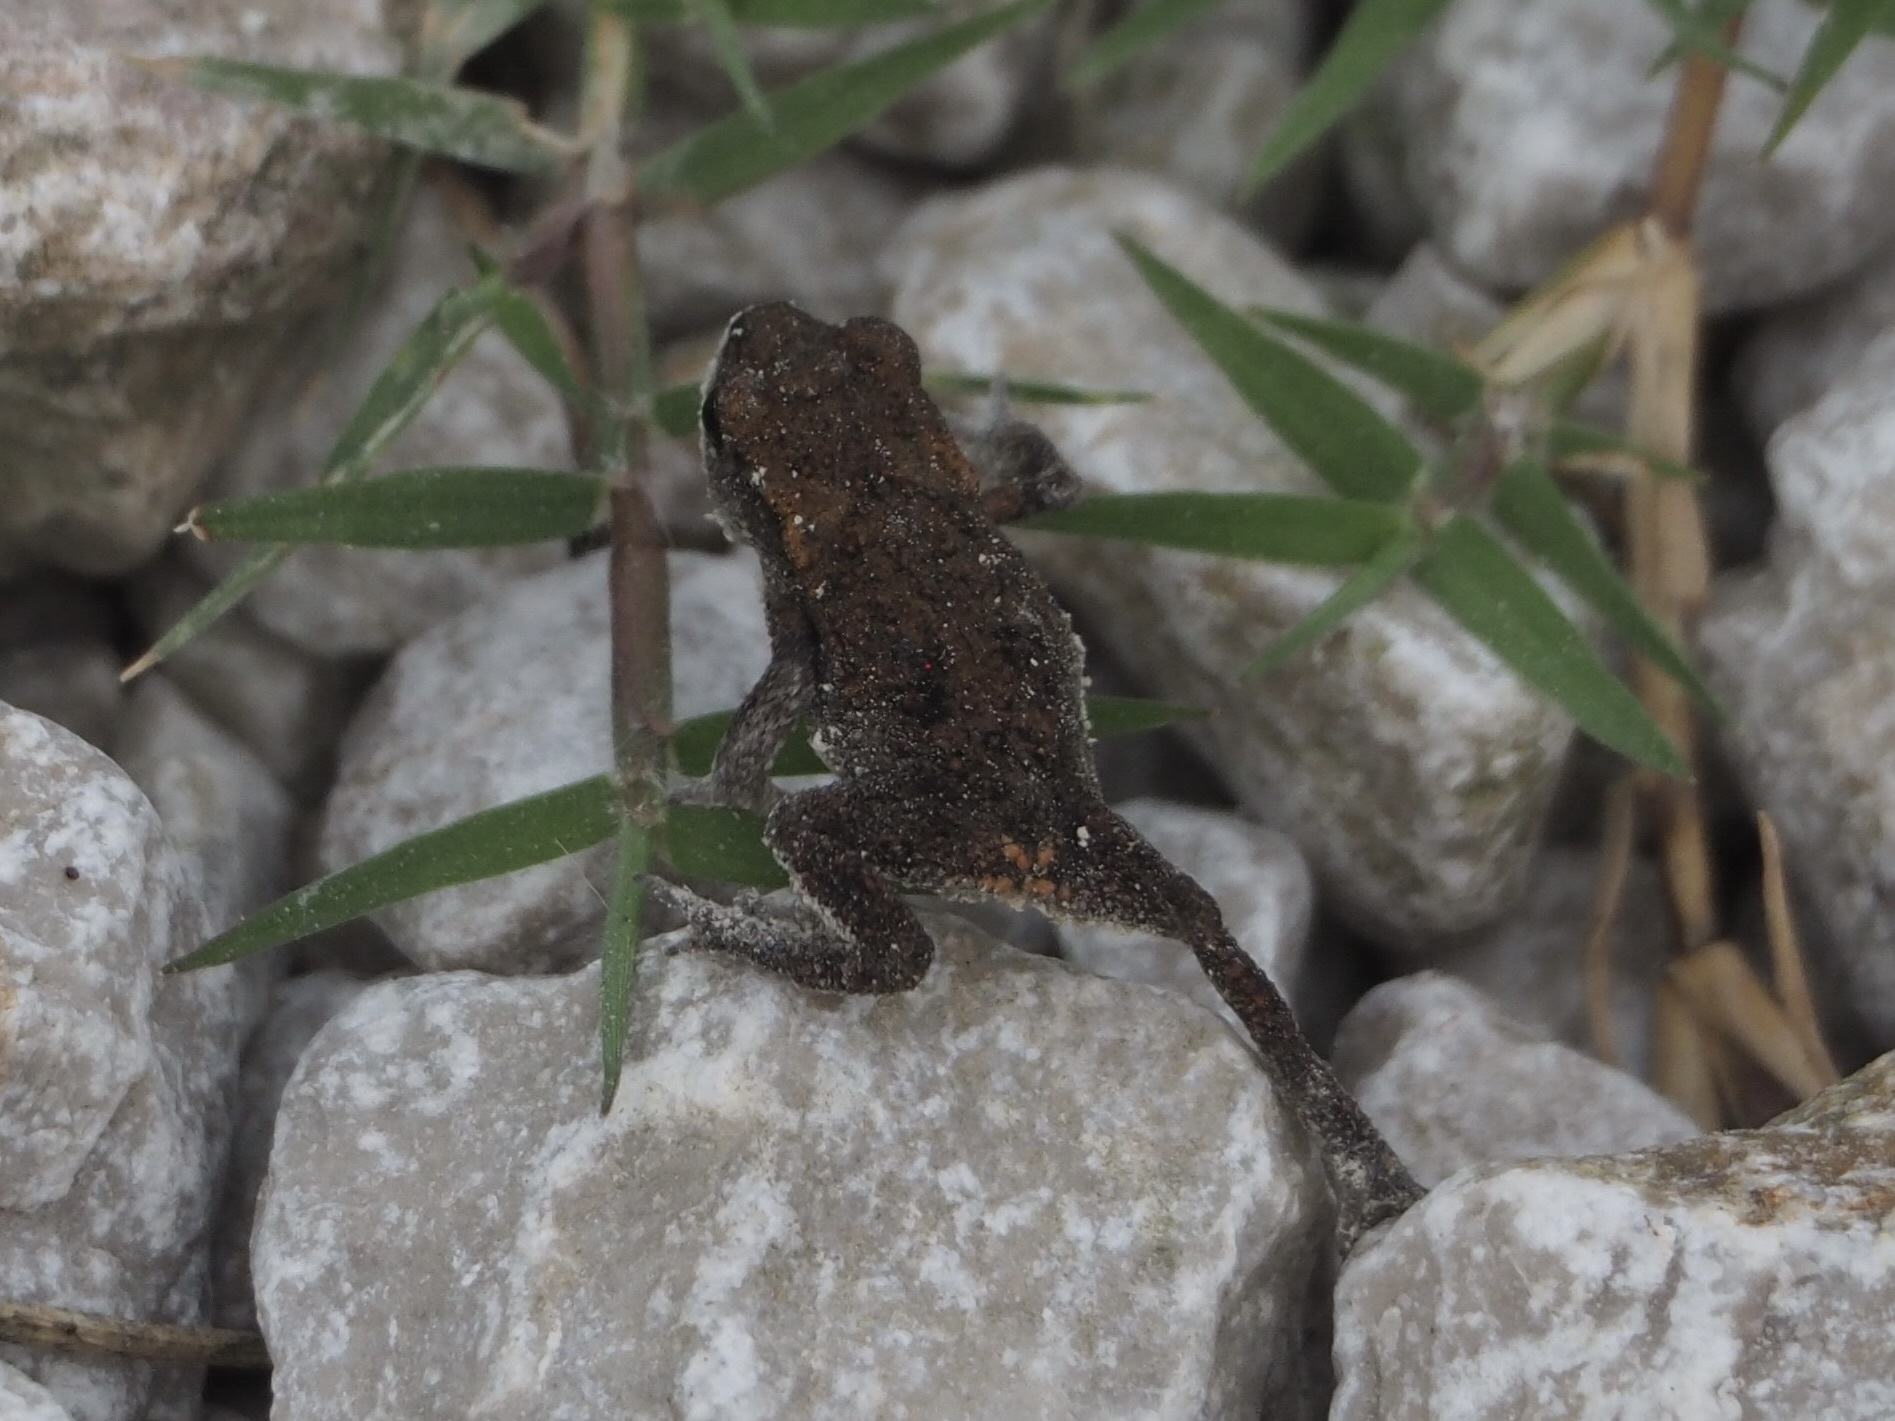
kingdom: Animalia
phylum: Chordata
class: Amphibia
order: Anura
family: Bufonidae
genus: Bufo
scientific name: Bufo spinosus
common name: Western common toad
